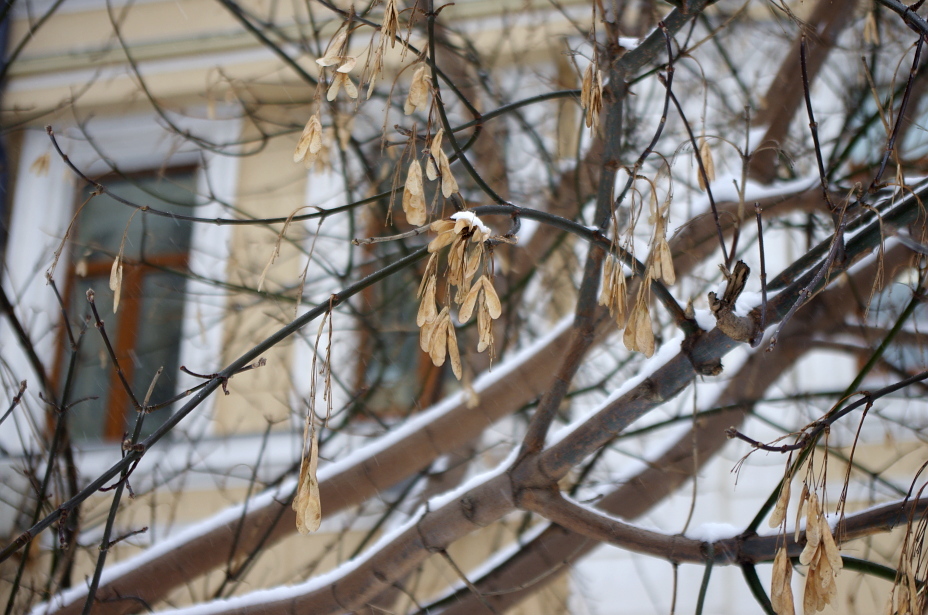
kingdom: Plantae
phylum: Tracheophyta
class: Magnoliopsida
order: Sapindales
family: Sapindaceae
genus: Acer
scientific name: Acer negundo
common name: Ashleaf maple
